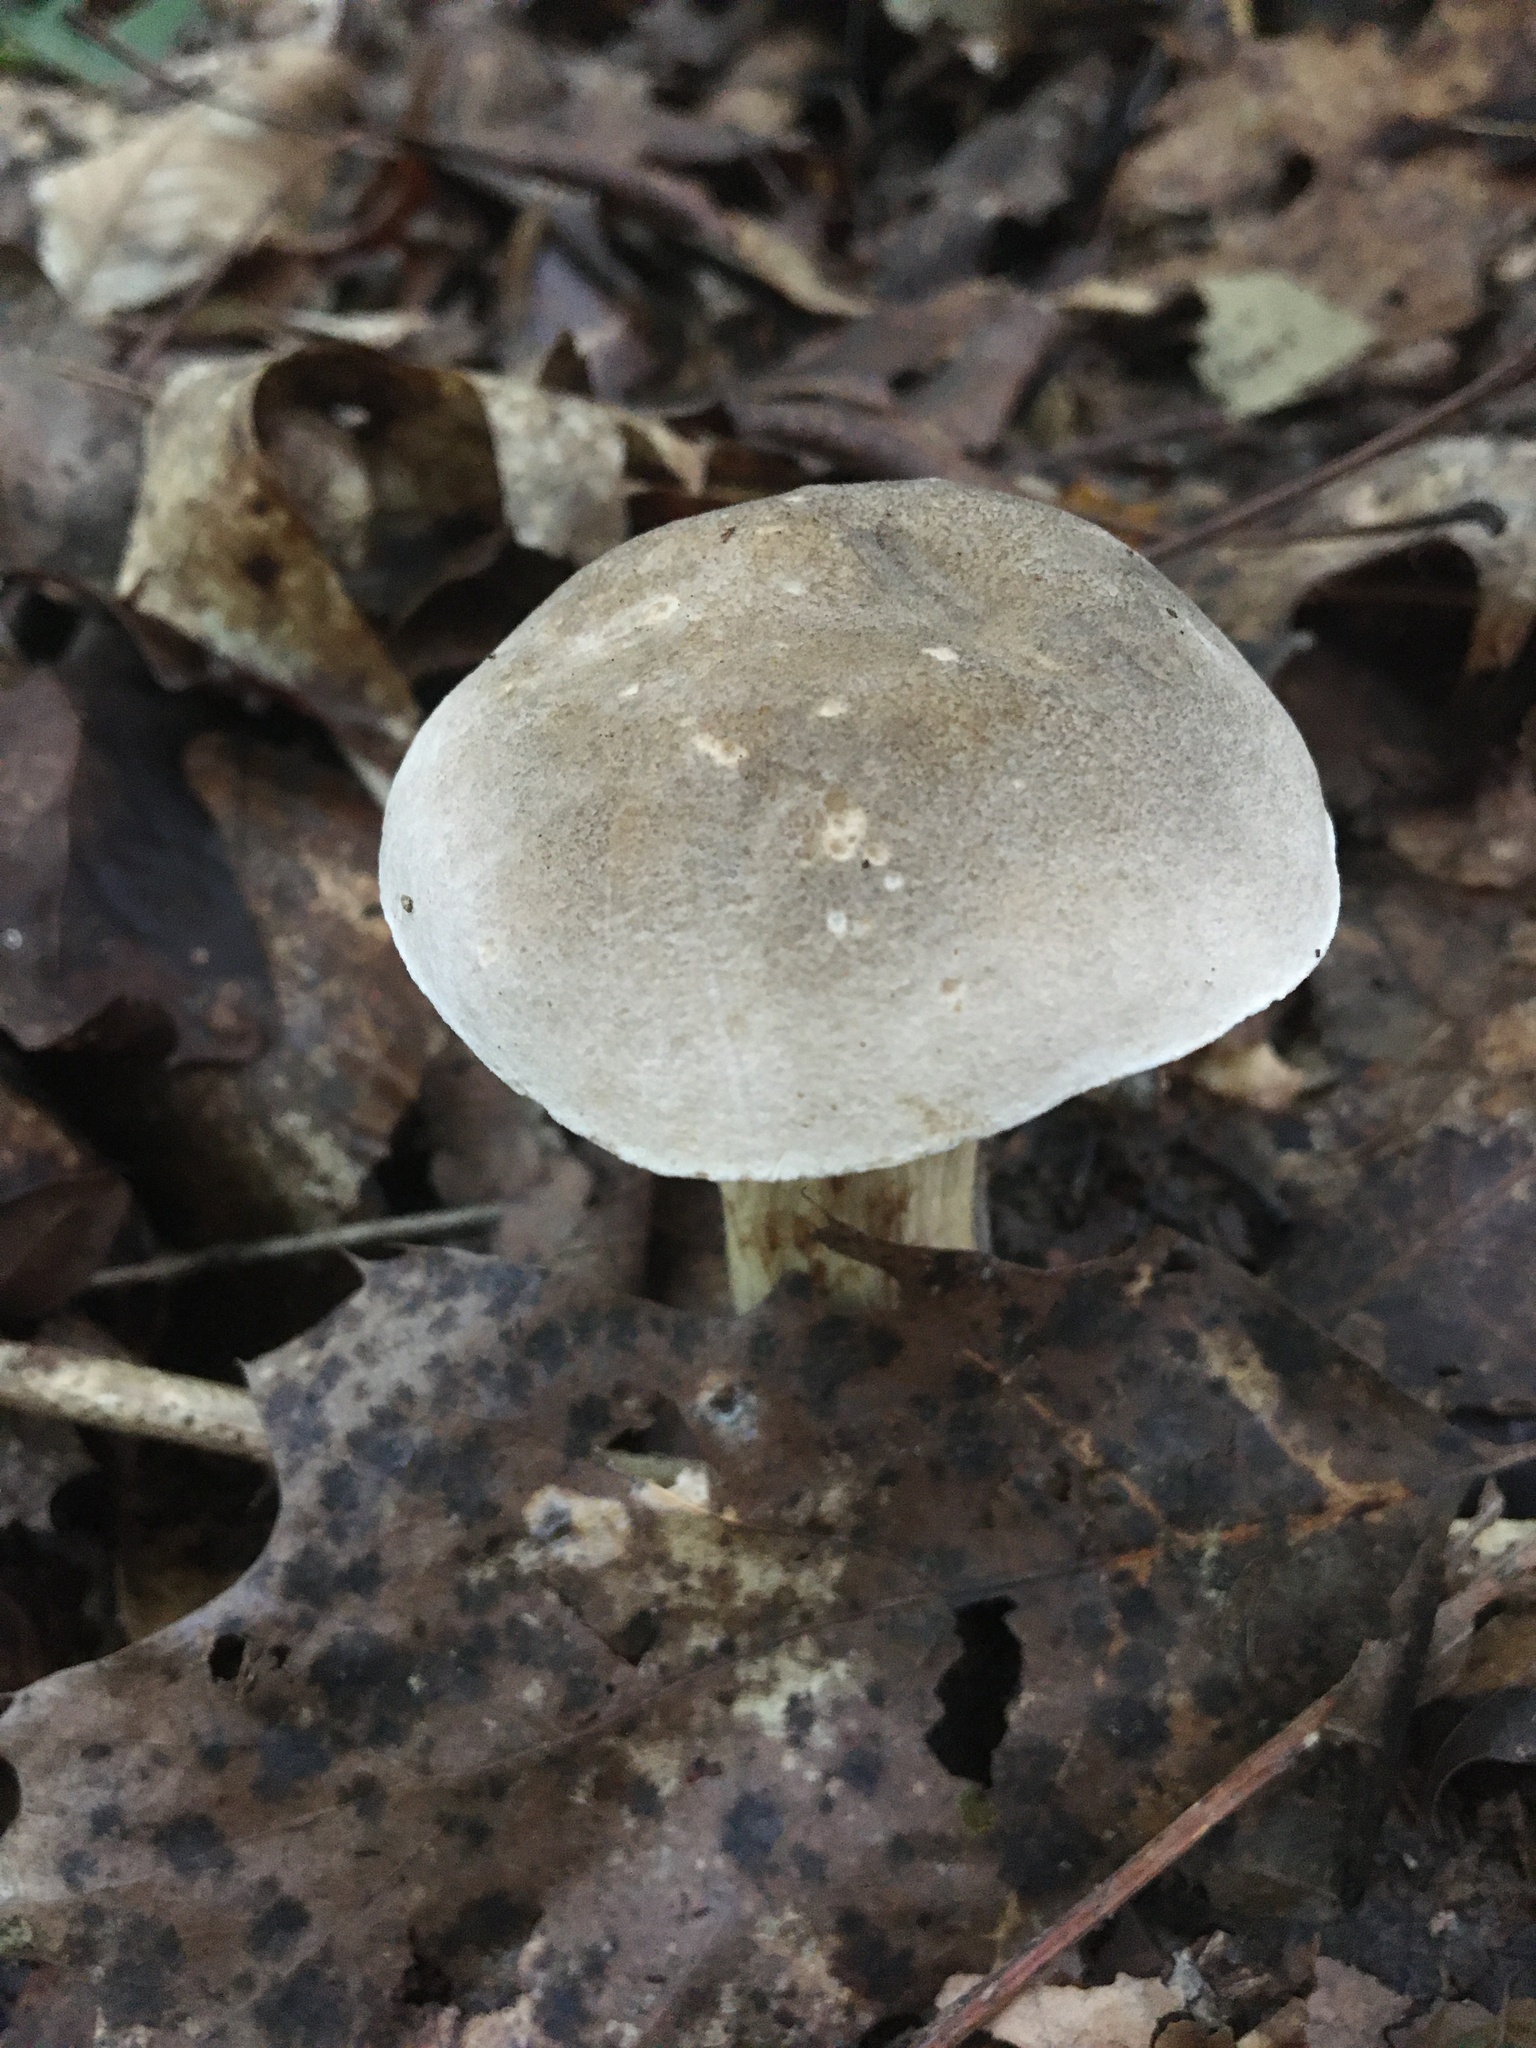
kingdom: Fungi
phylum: Basidiomycota
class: Agaricomycetes
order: Boletales
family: Boletaceae
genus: Retiboletus
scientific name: Retiboletus griseus
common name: Grey bolete
